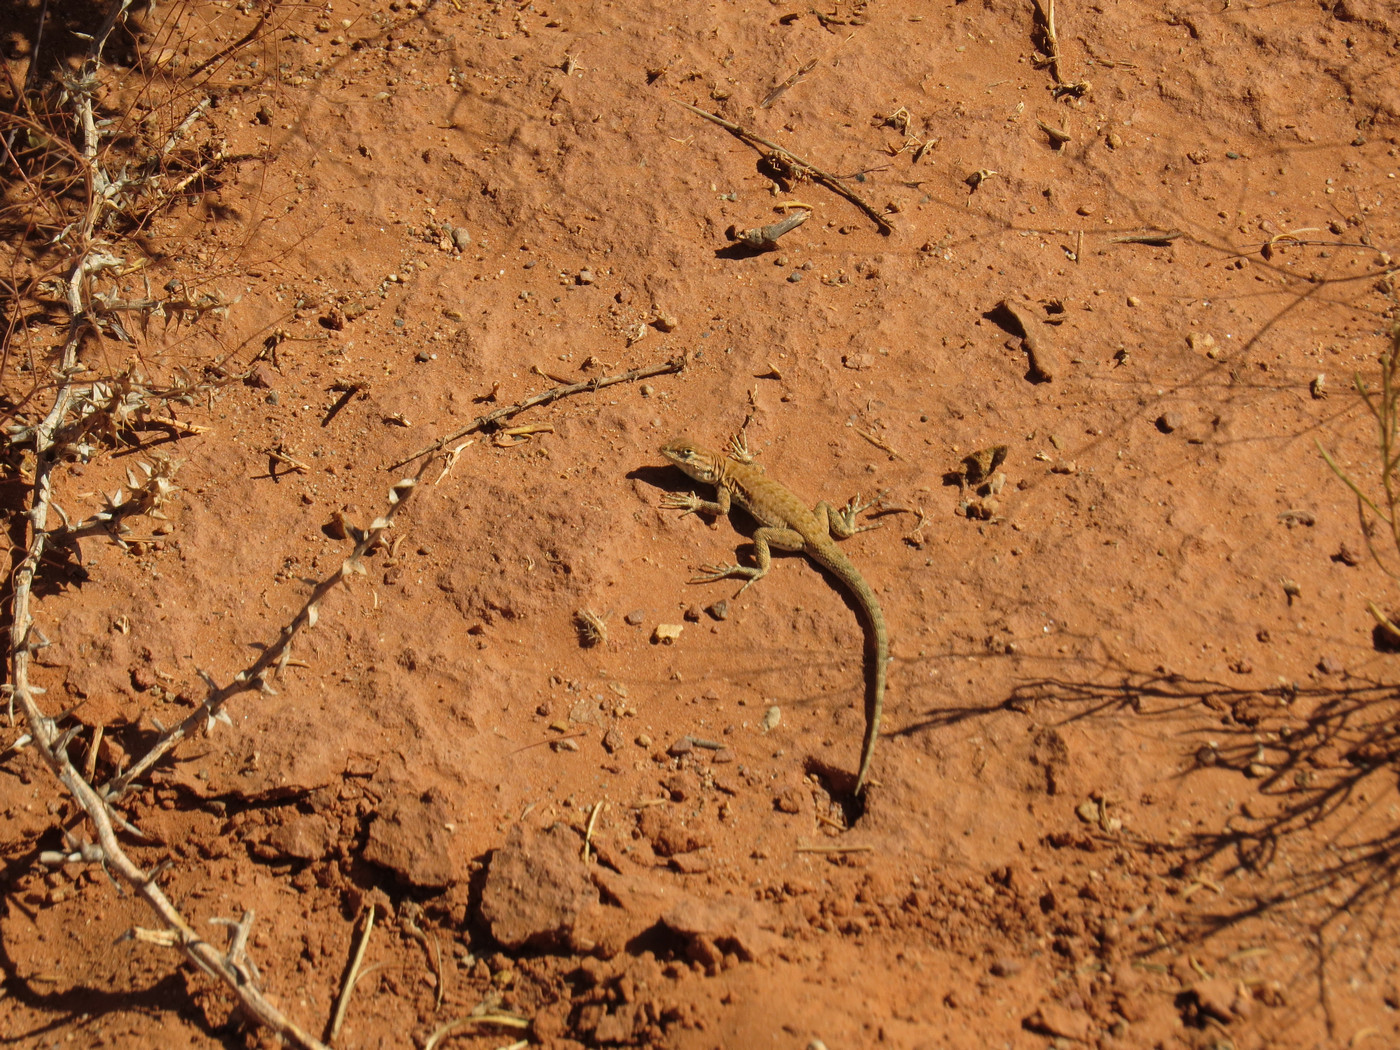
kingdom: Animalia
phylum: Chordata
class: Squamata
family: Phrynosomatidae
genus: Uta
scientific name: Uta stansburiana
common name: Side-blotched lizard
